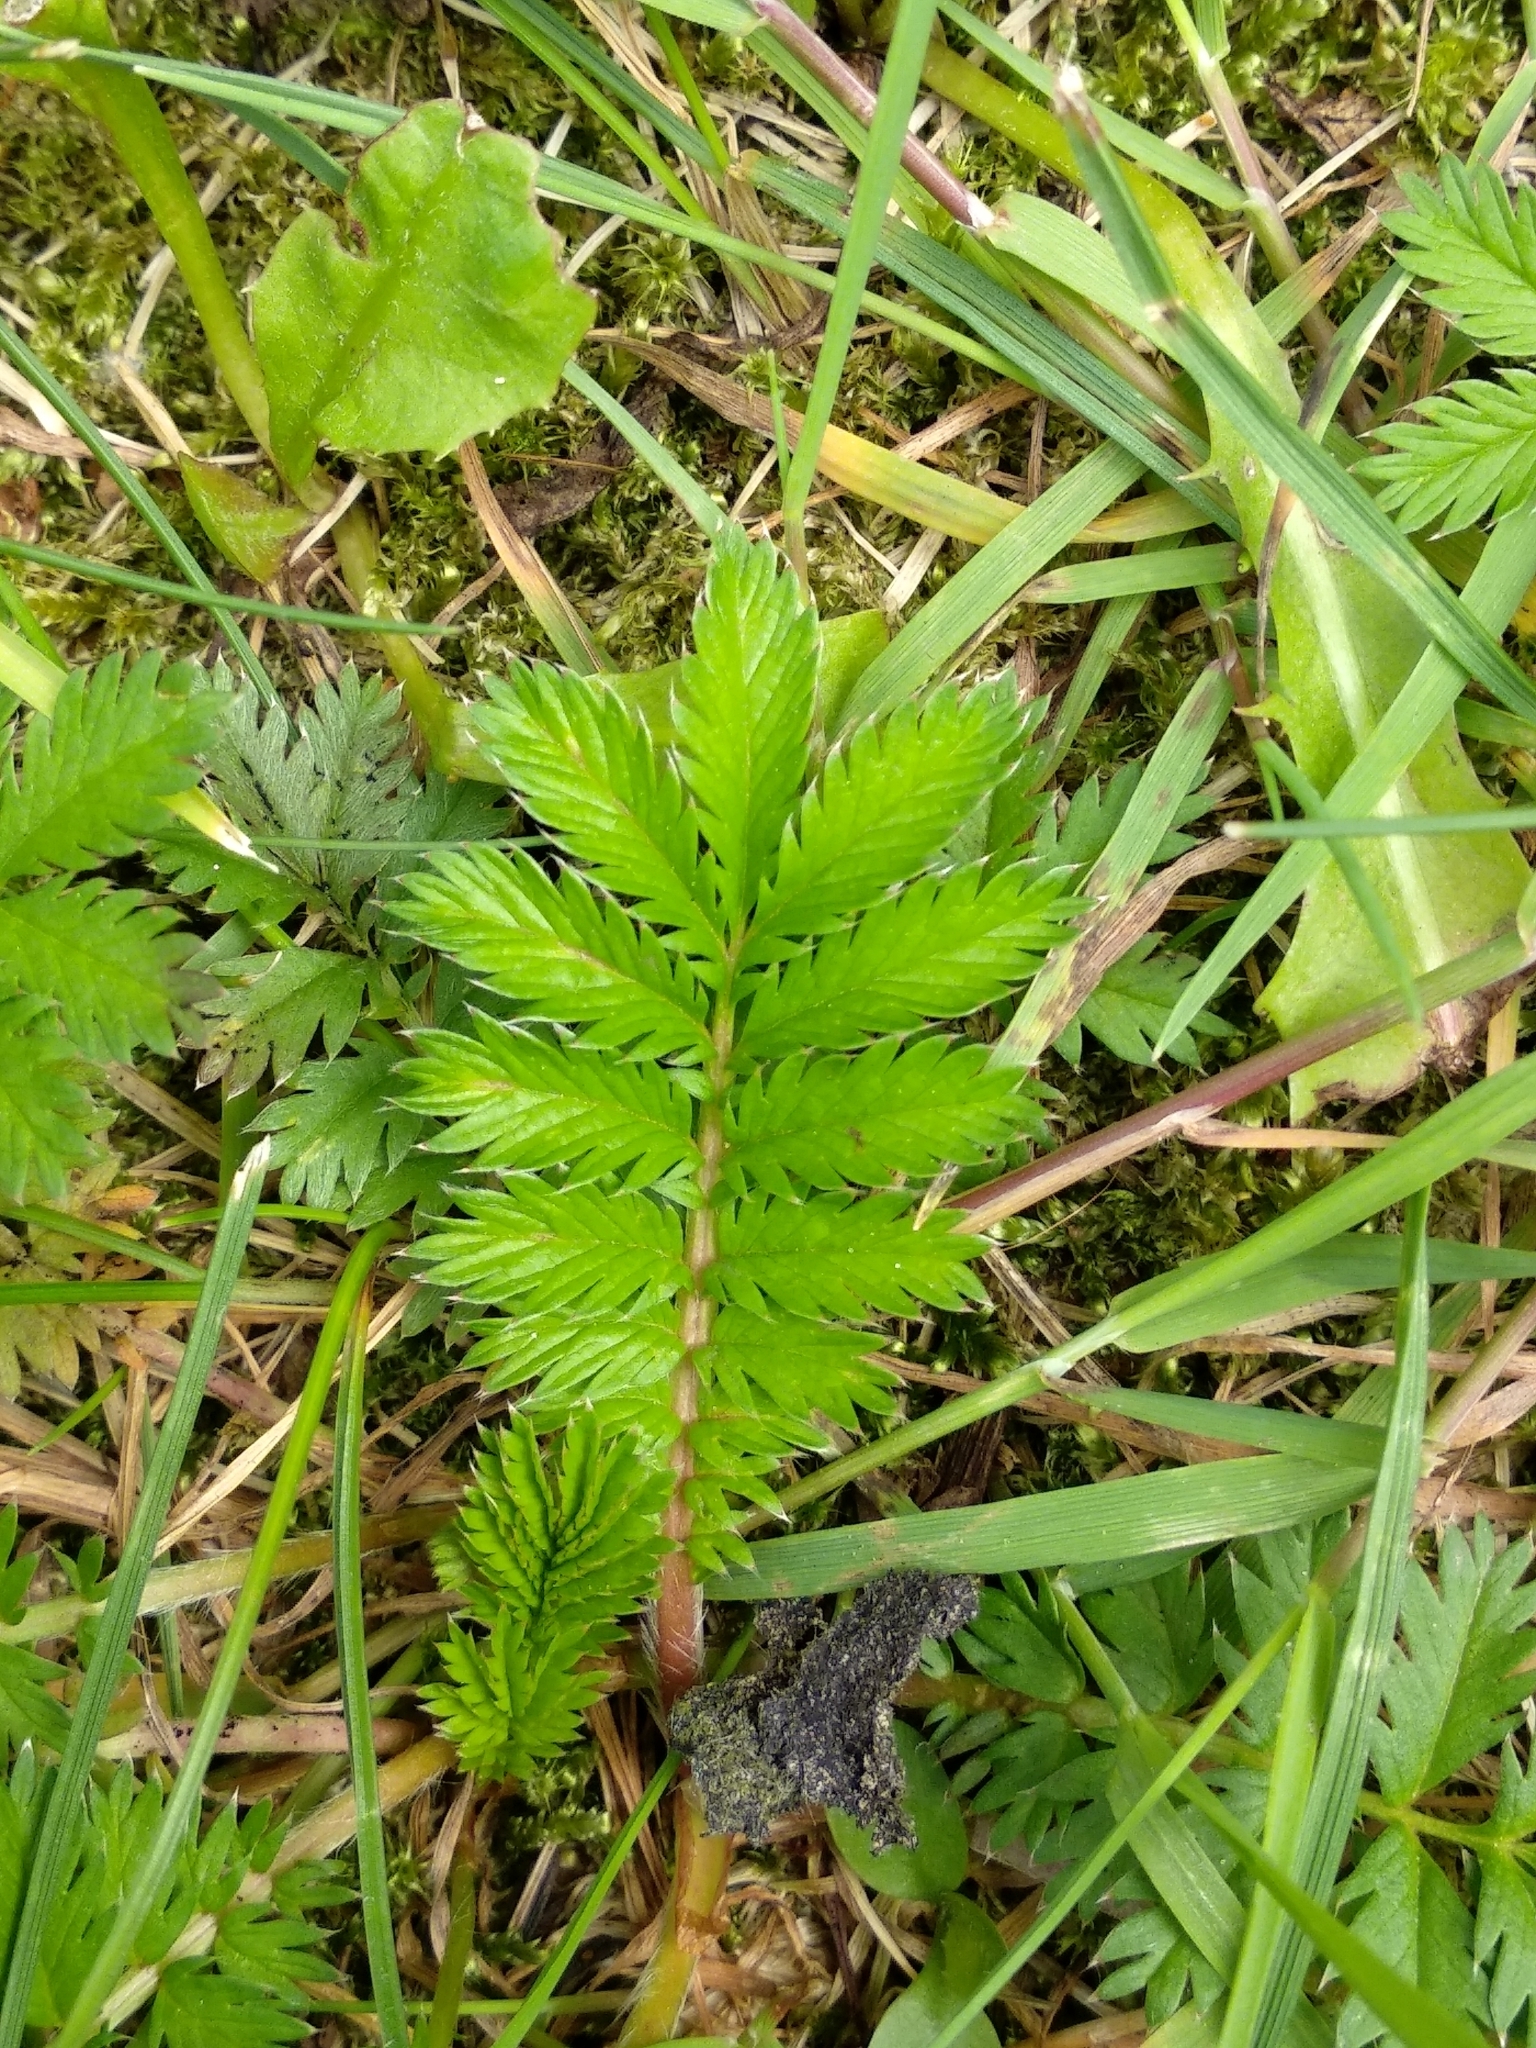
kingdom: Plantae
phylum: Tracheophyta
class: Magnoliopsida
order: Rosales
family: Rosaceae
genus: Argentina
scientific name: Argentina anserina
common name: Common silverweed
